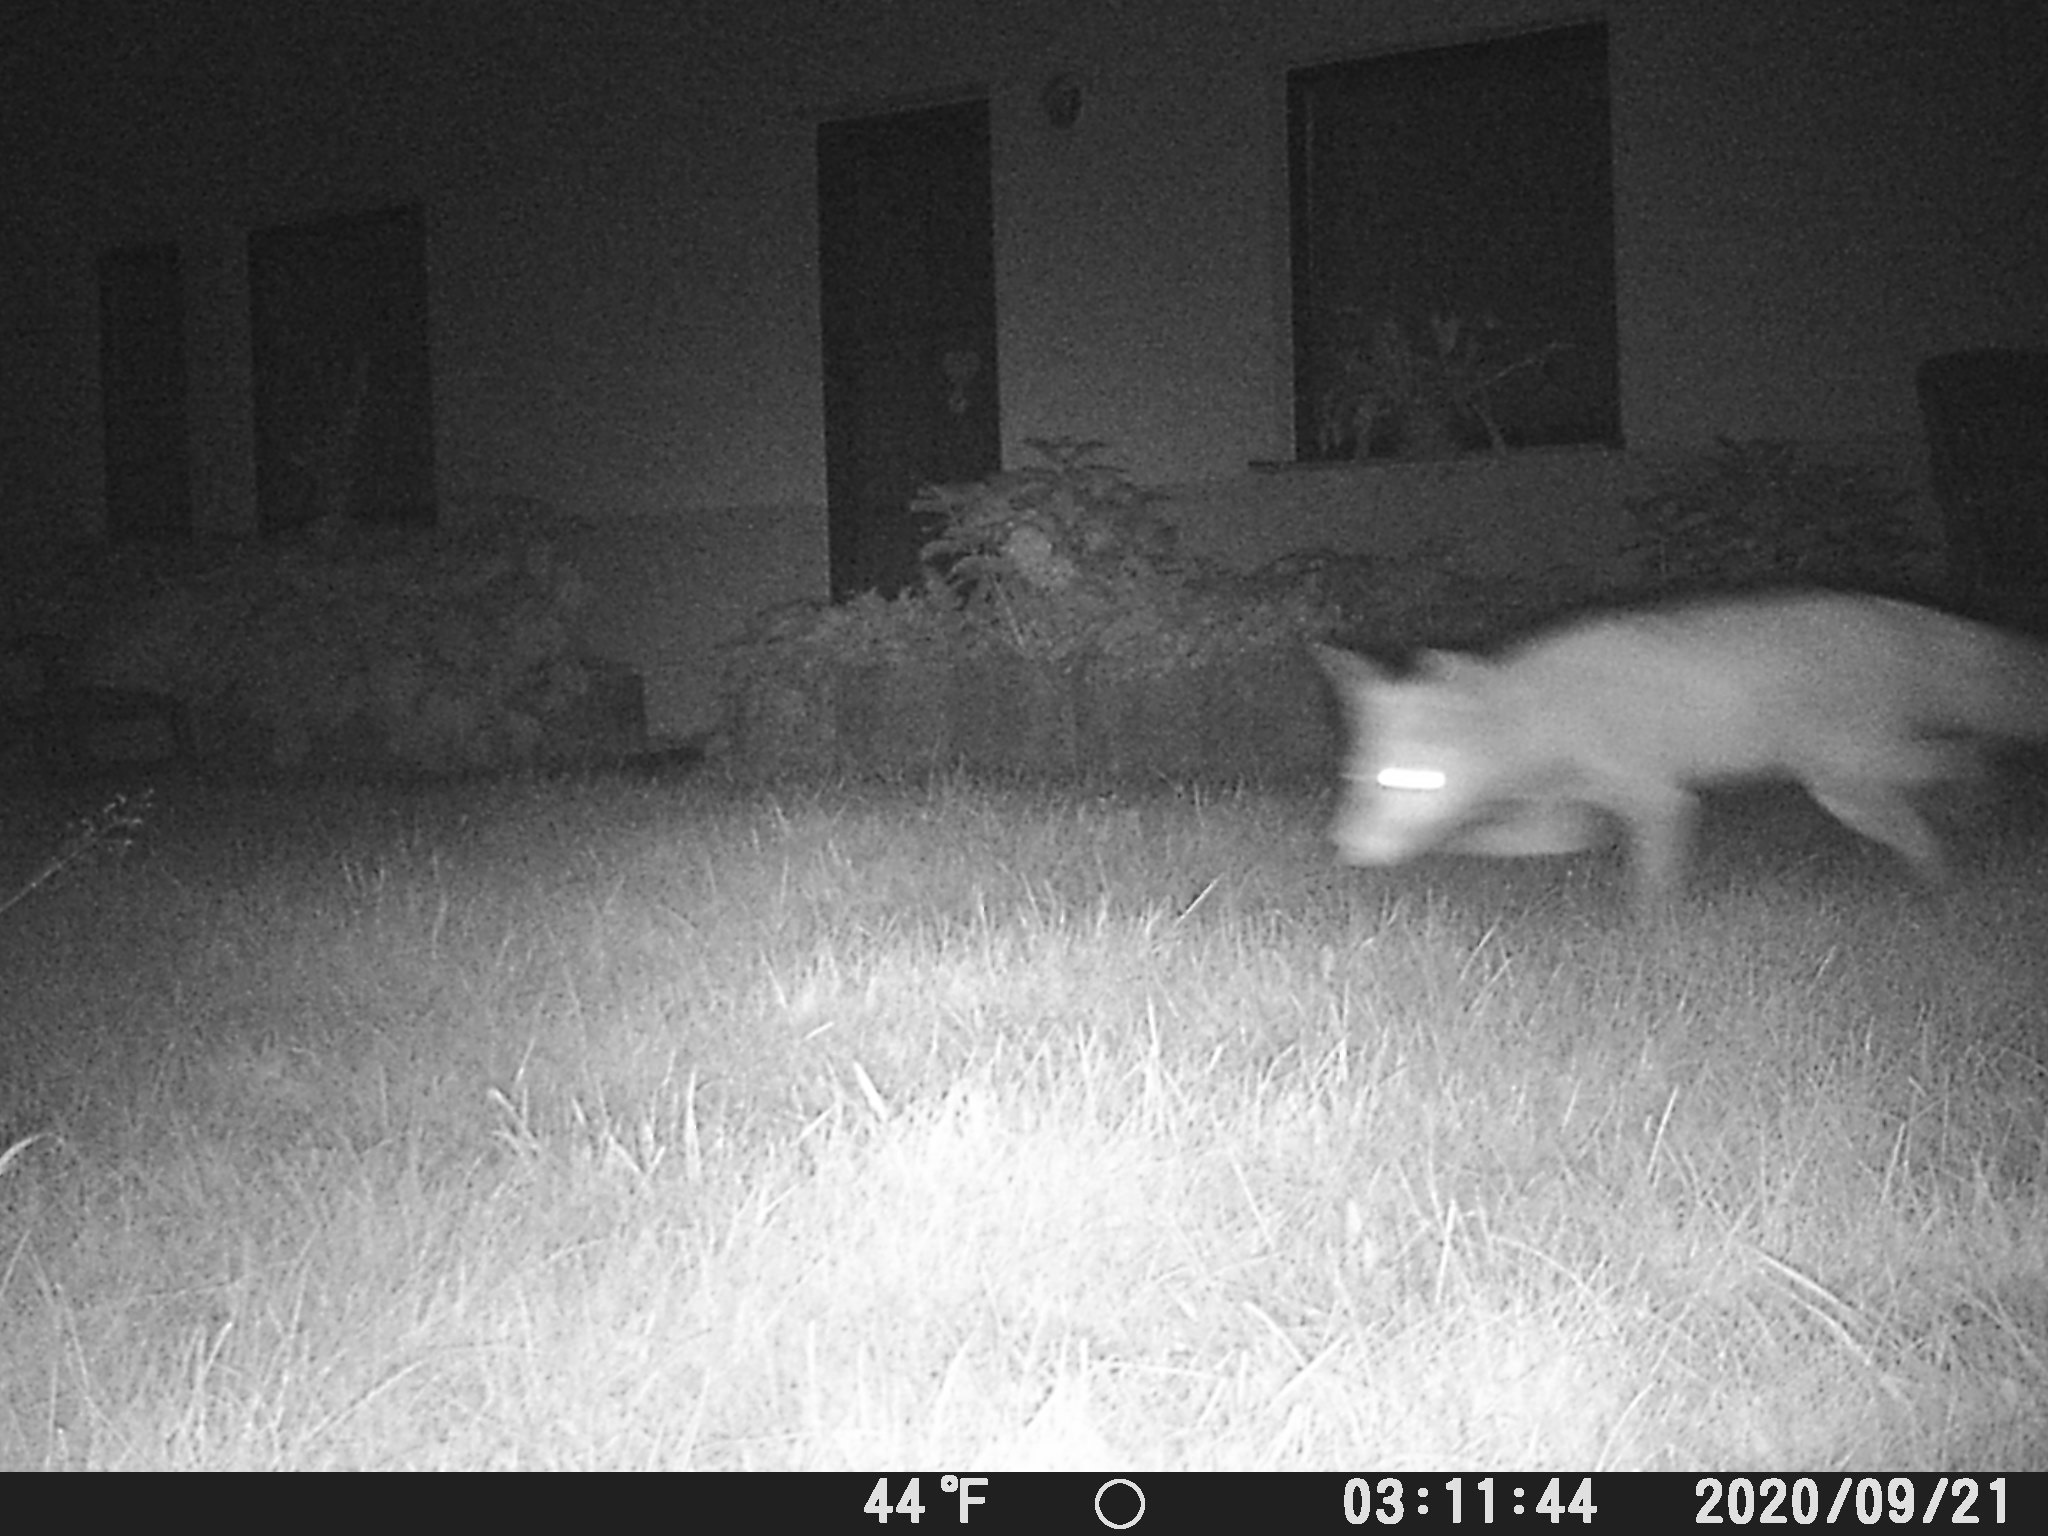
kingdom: Animalia
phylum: Chordata
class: Mammalia
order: Carnivora
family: Canidae
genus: Vulpes
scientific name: Vulpes vulpes
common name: Red fox
